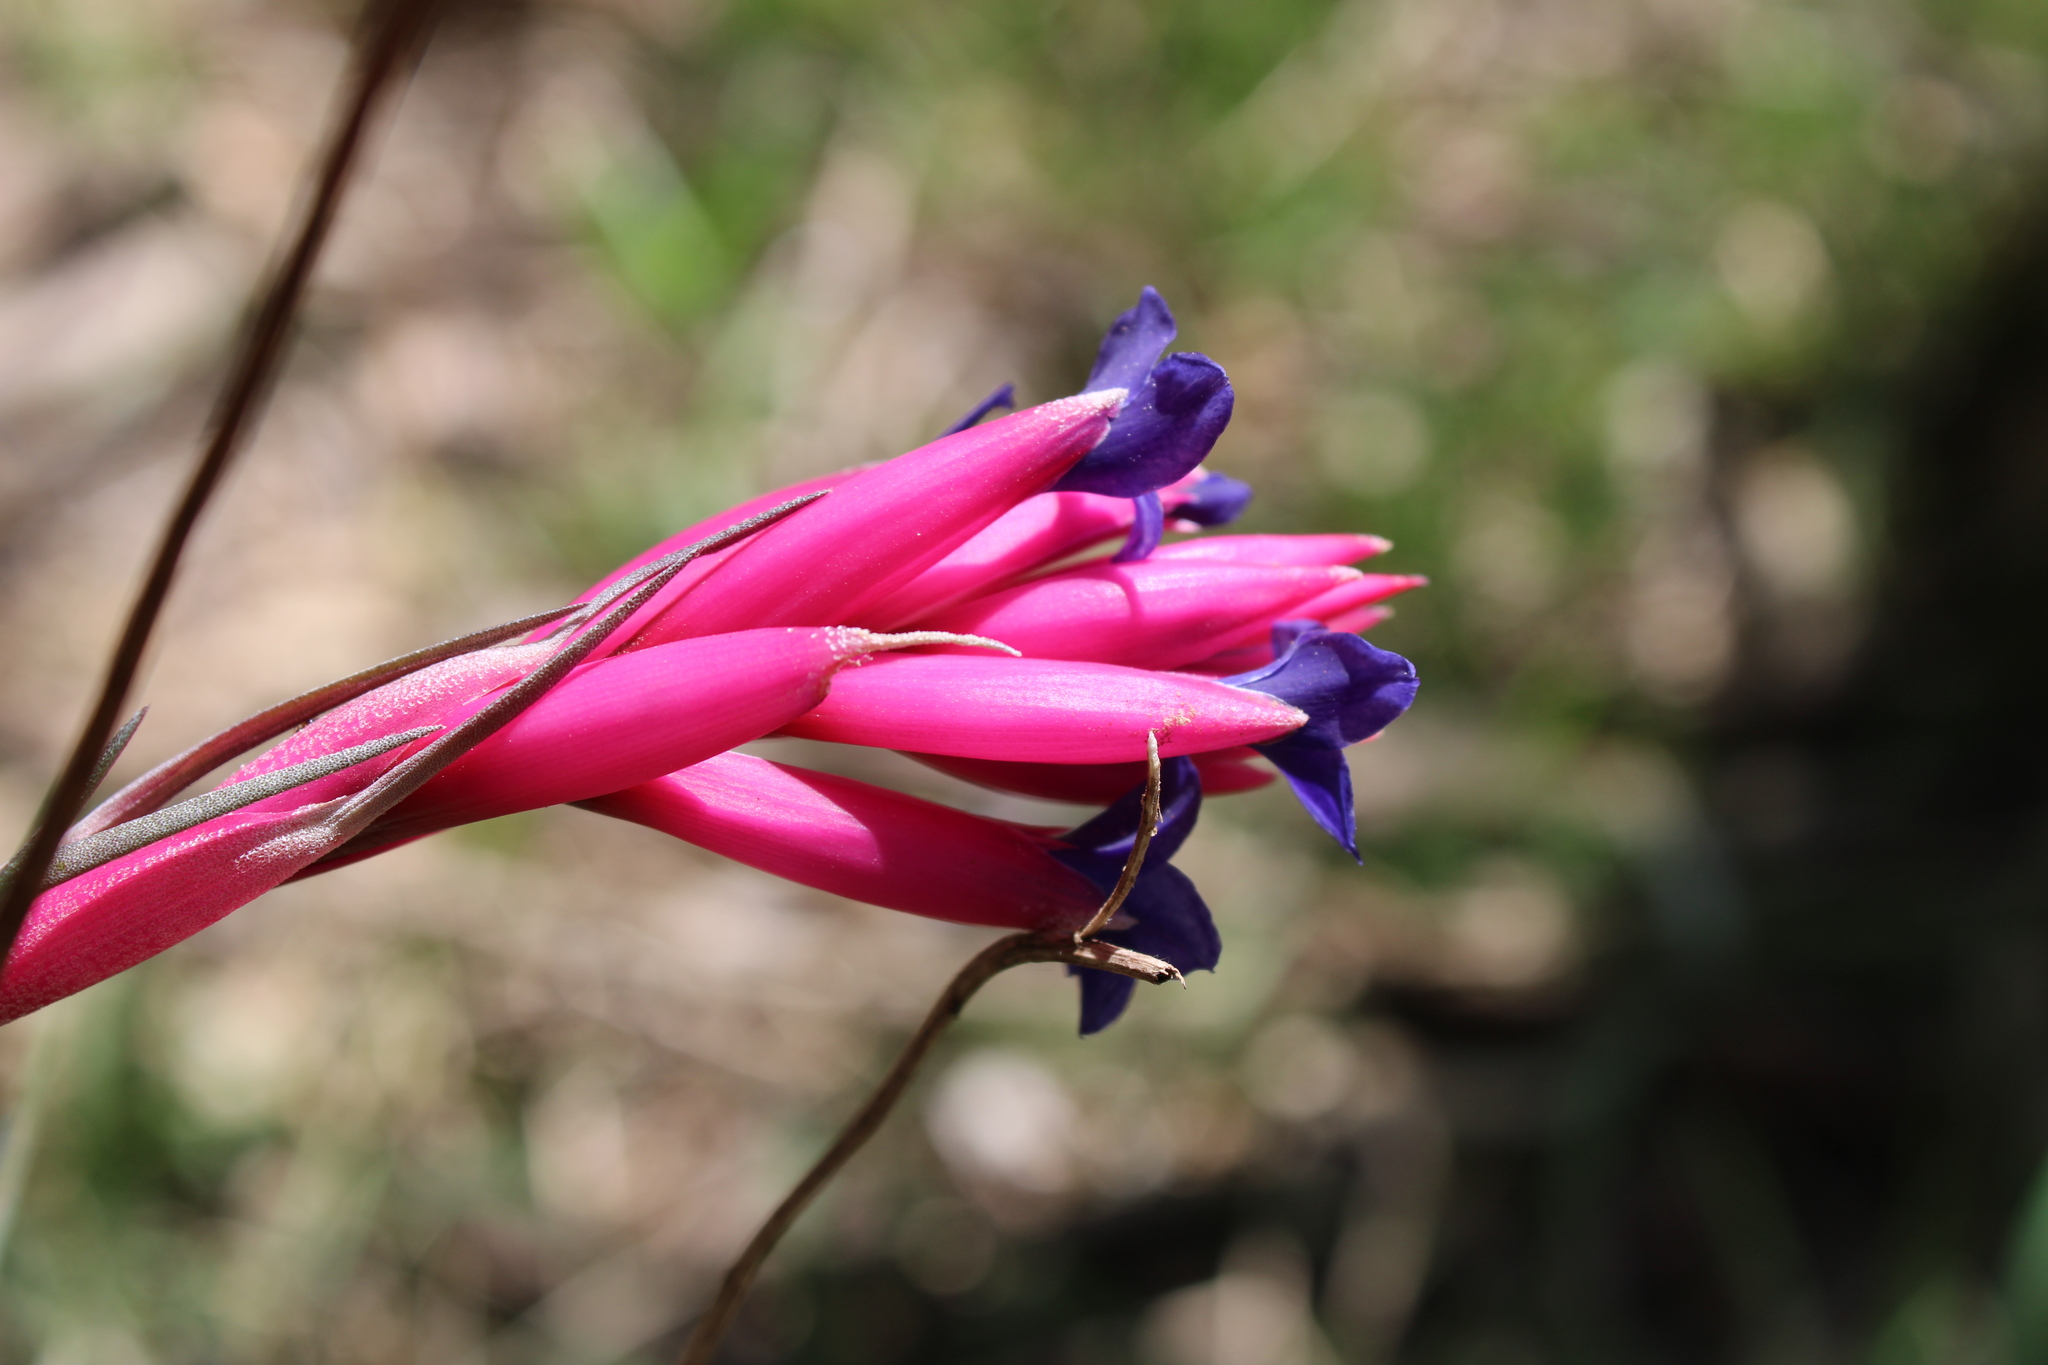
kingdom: Plantae
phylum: Tracheophyta
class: Liliopsida
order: Poales
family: Bromeliaceae
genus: Tillandsia
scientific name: Tillandsia aeranthos
